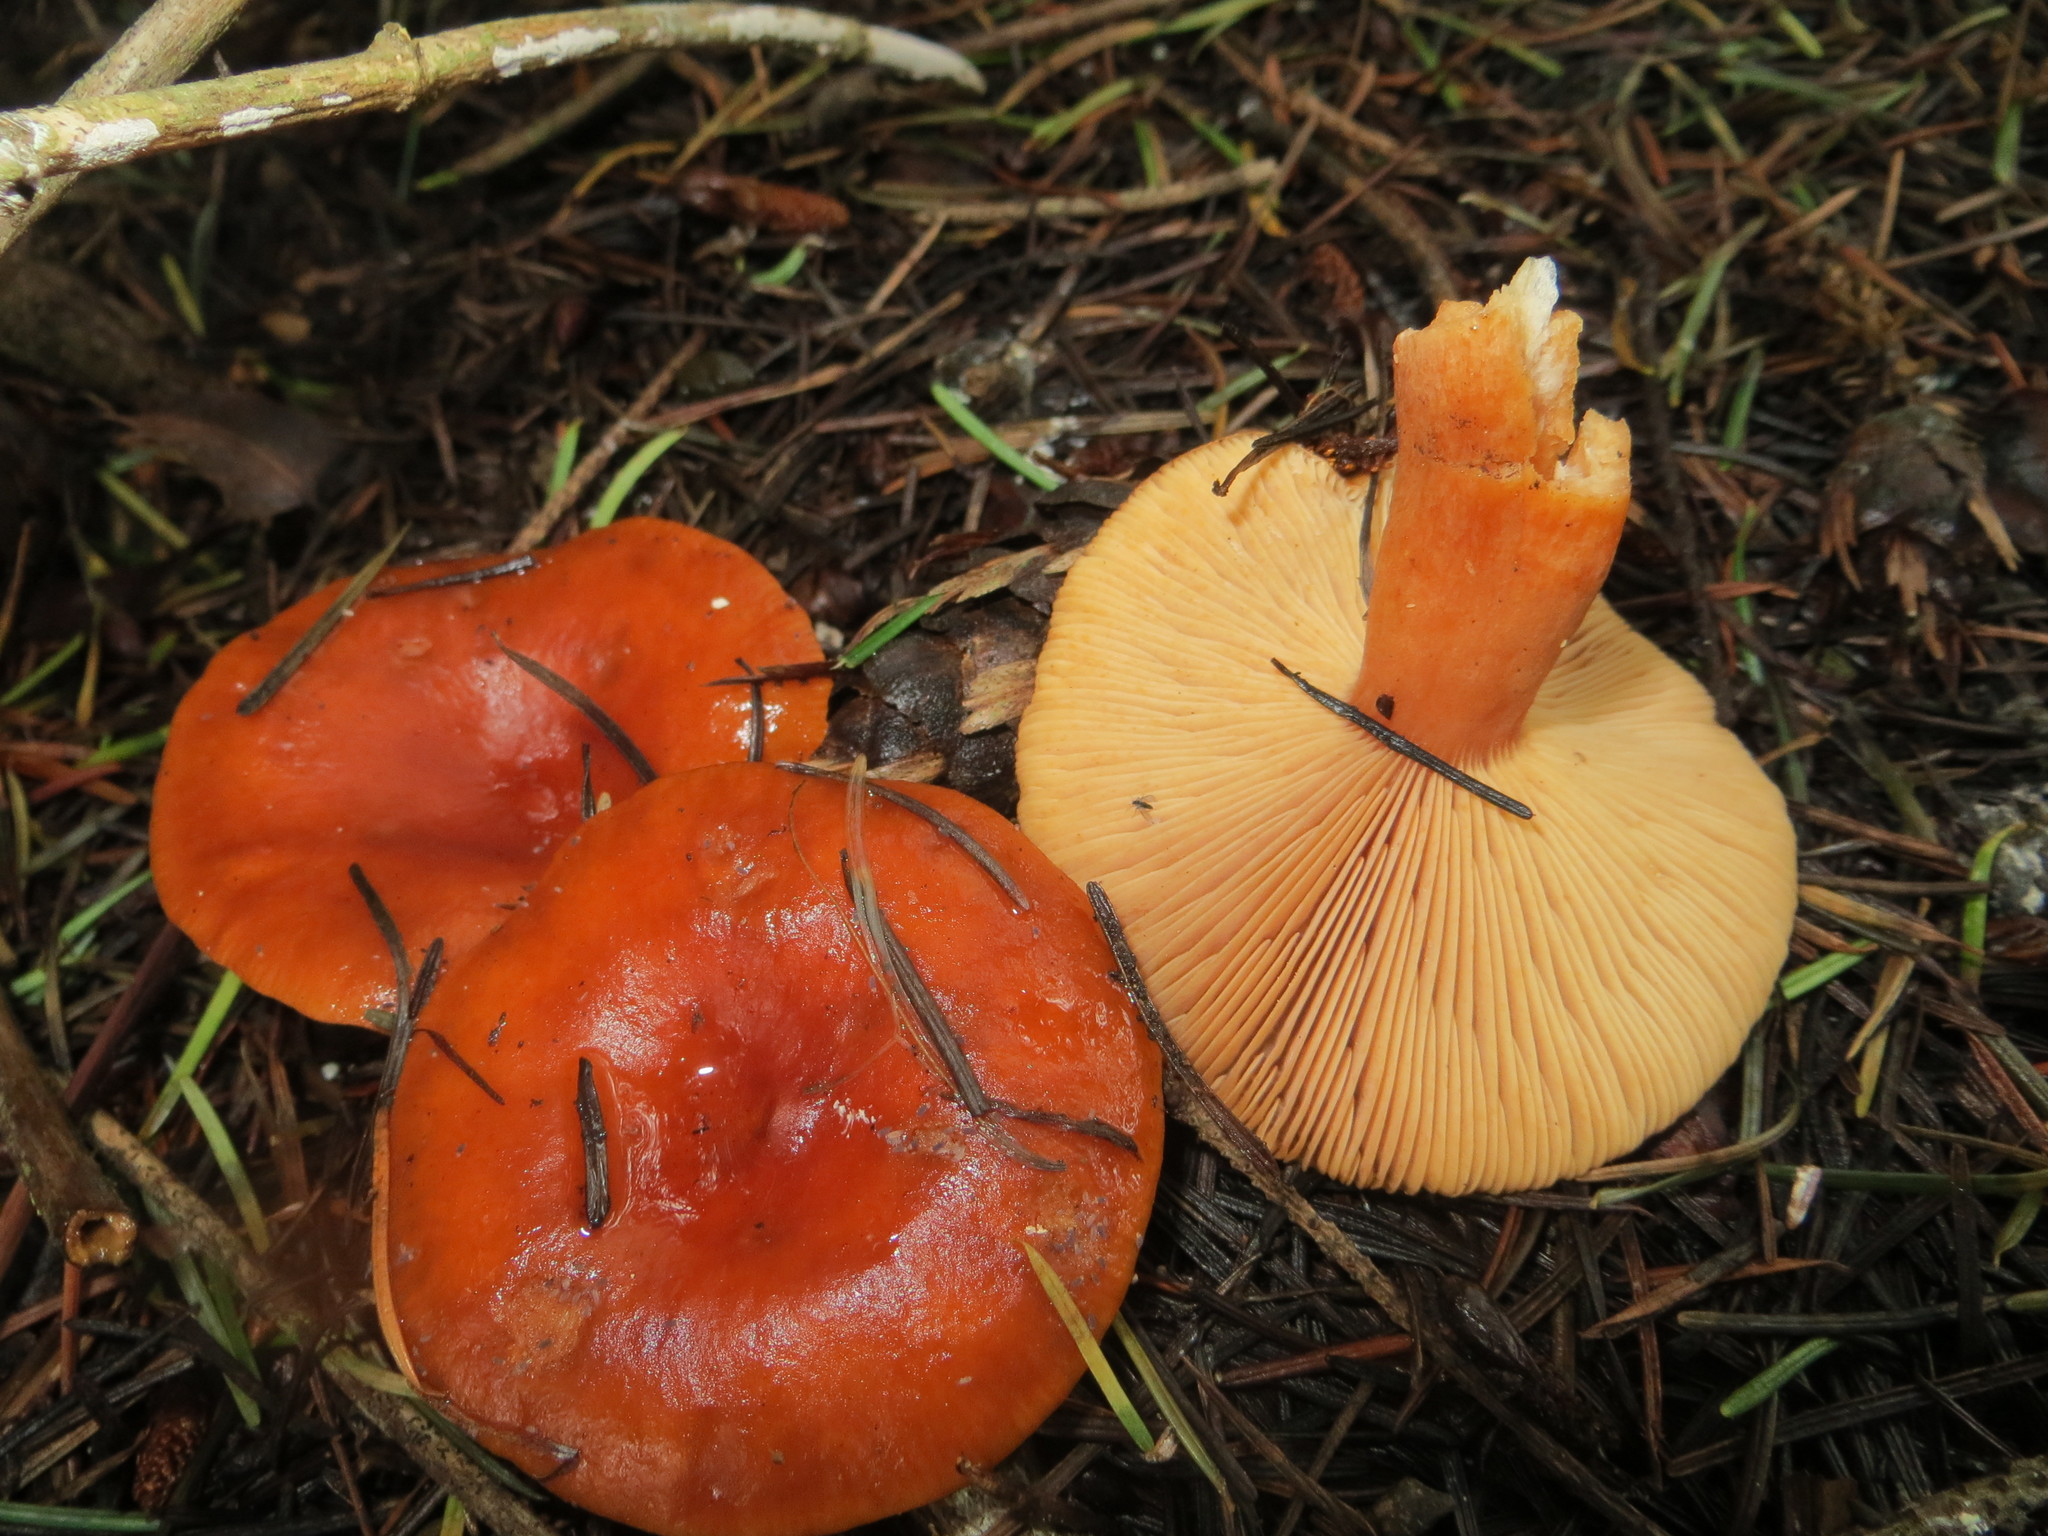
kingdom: Fungi
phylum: Basidiomycota
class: Agaricomycetes
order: Russulales
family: Russulaceae
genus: Lactarius
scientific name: Lactarius subviscidus
